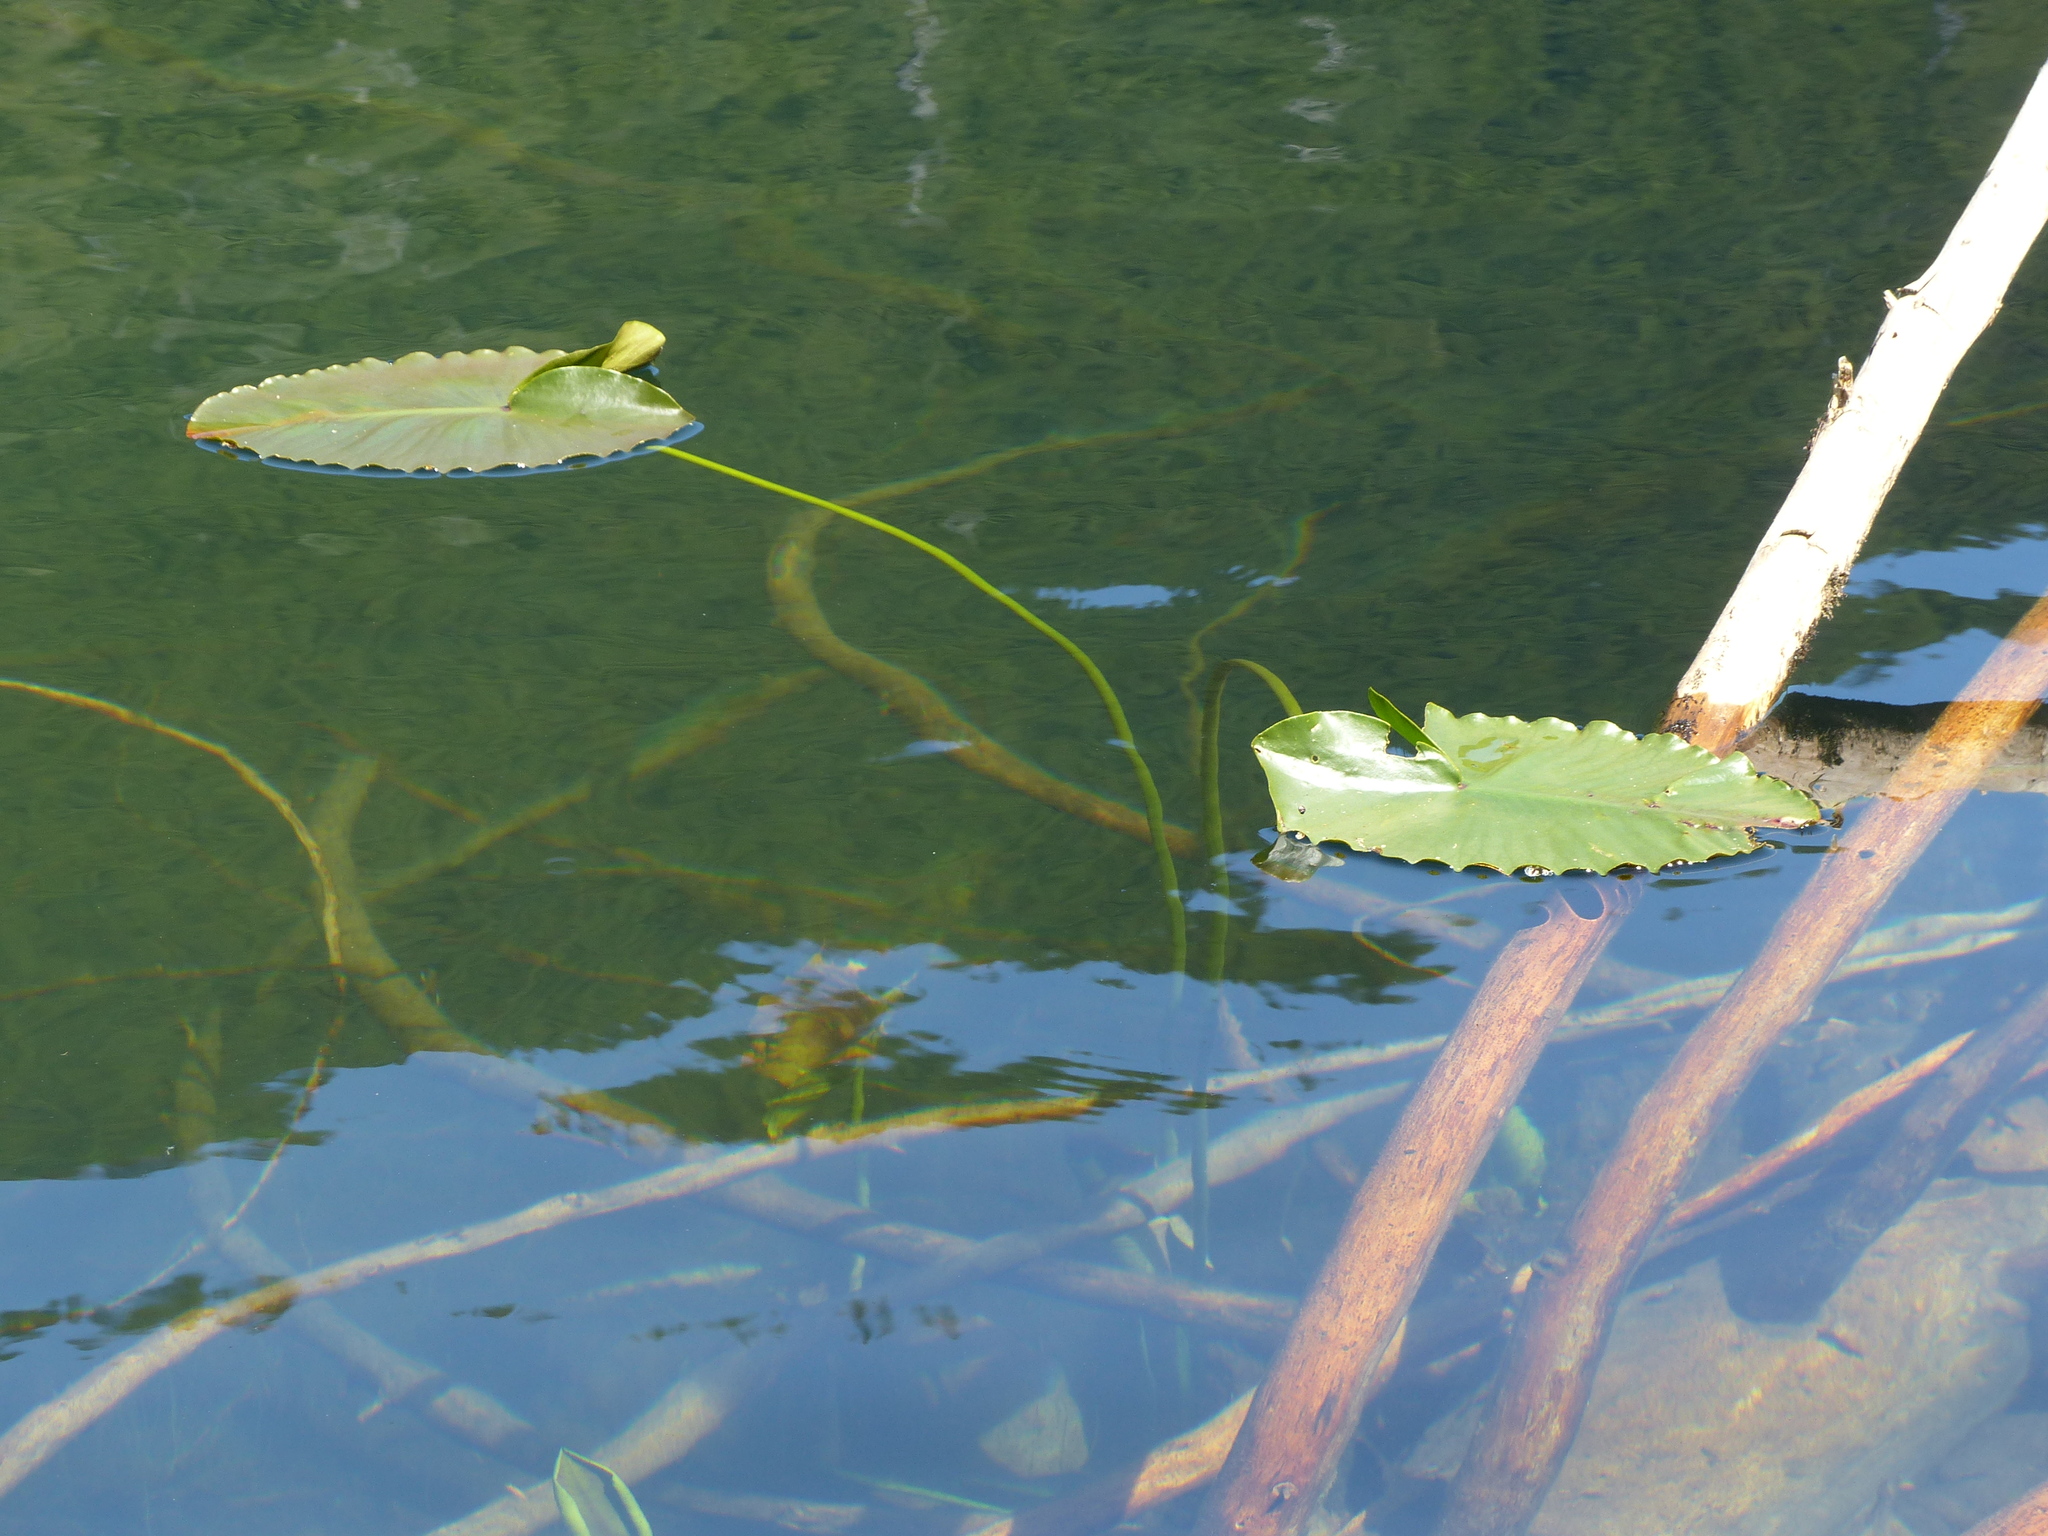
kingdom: Plantae
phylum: Tracheophyta
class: Magnoliopsida
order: Nymphaeales
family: Nymphaeaceae
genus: Nuphar
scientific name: Nuphar polysepala
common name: Rocky mountain cow-lily
